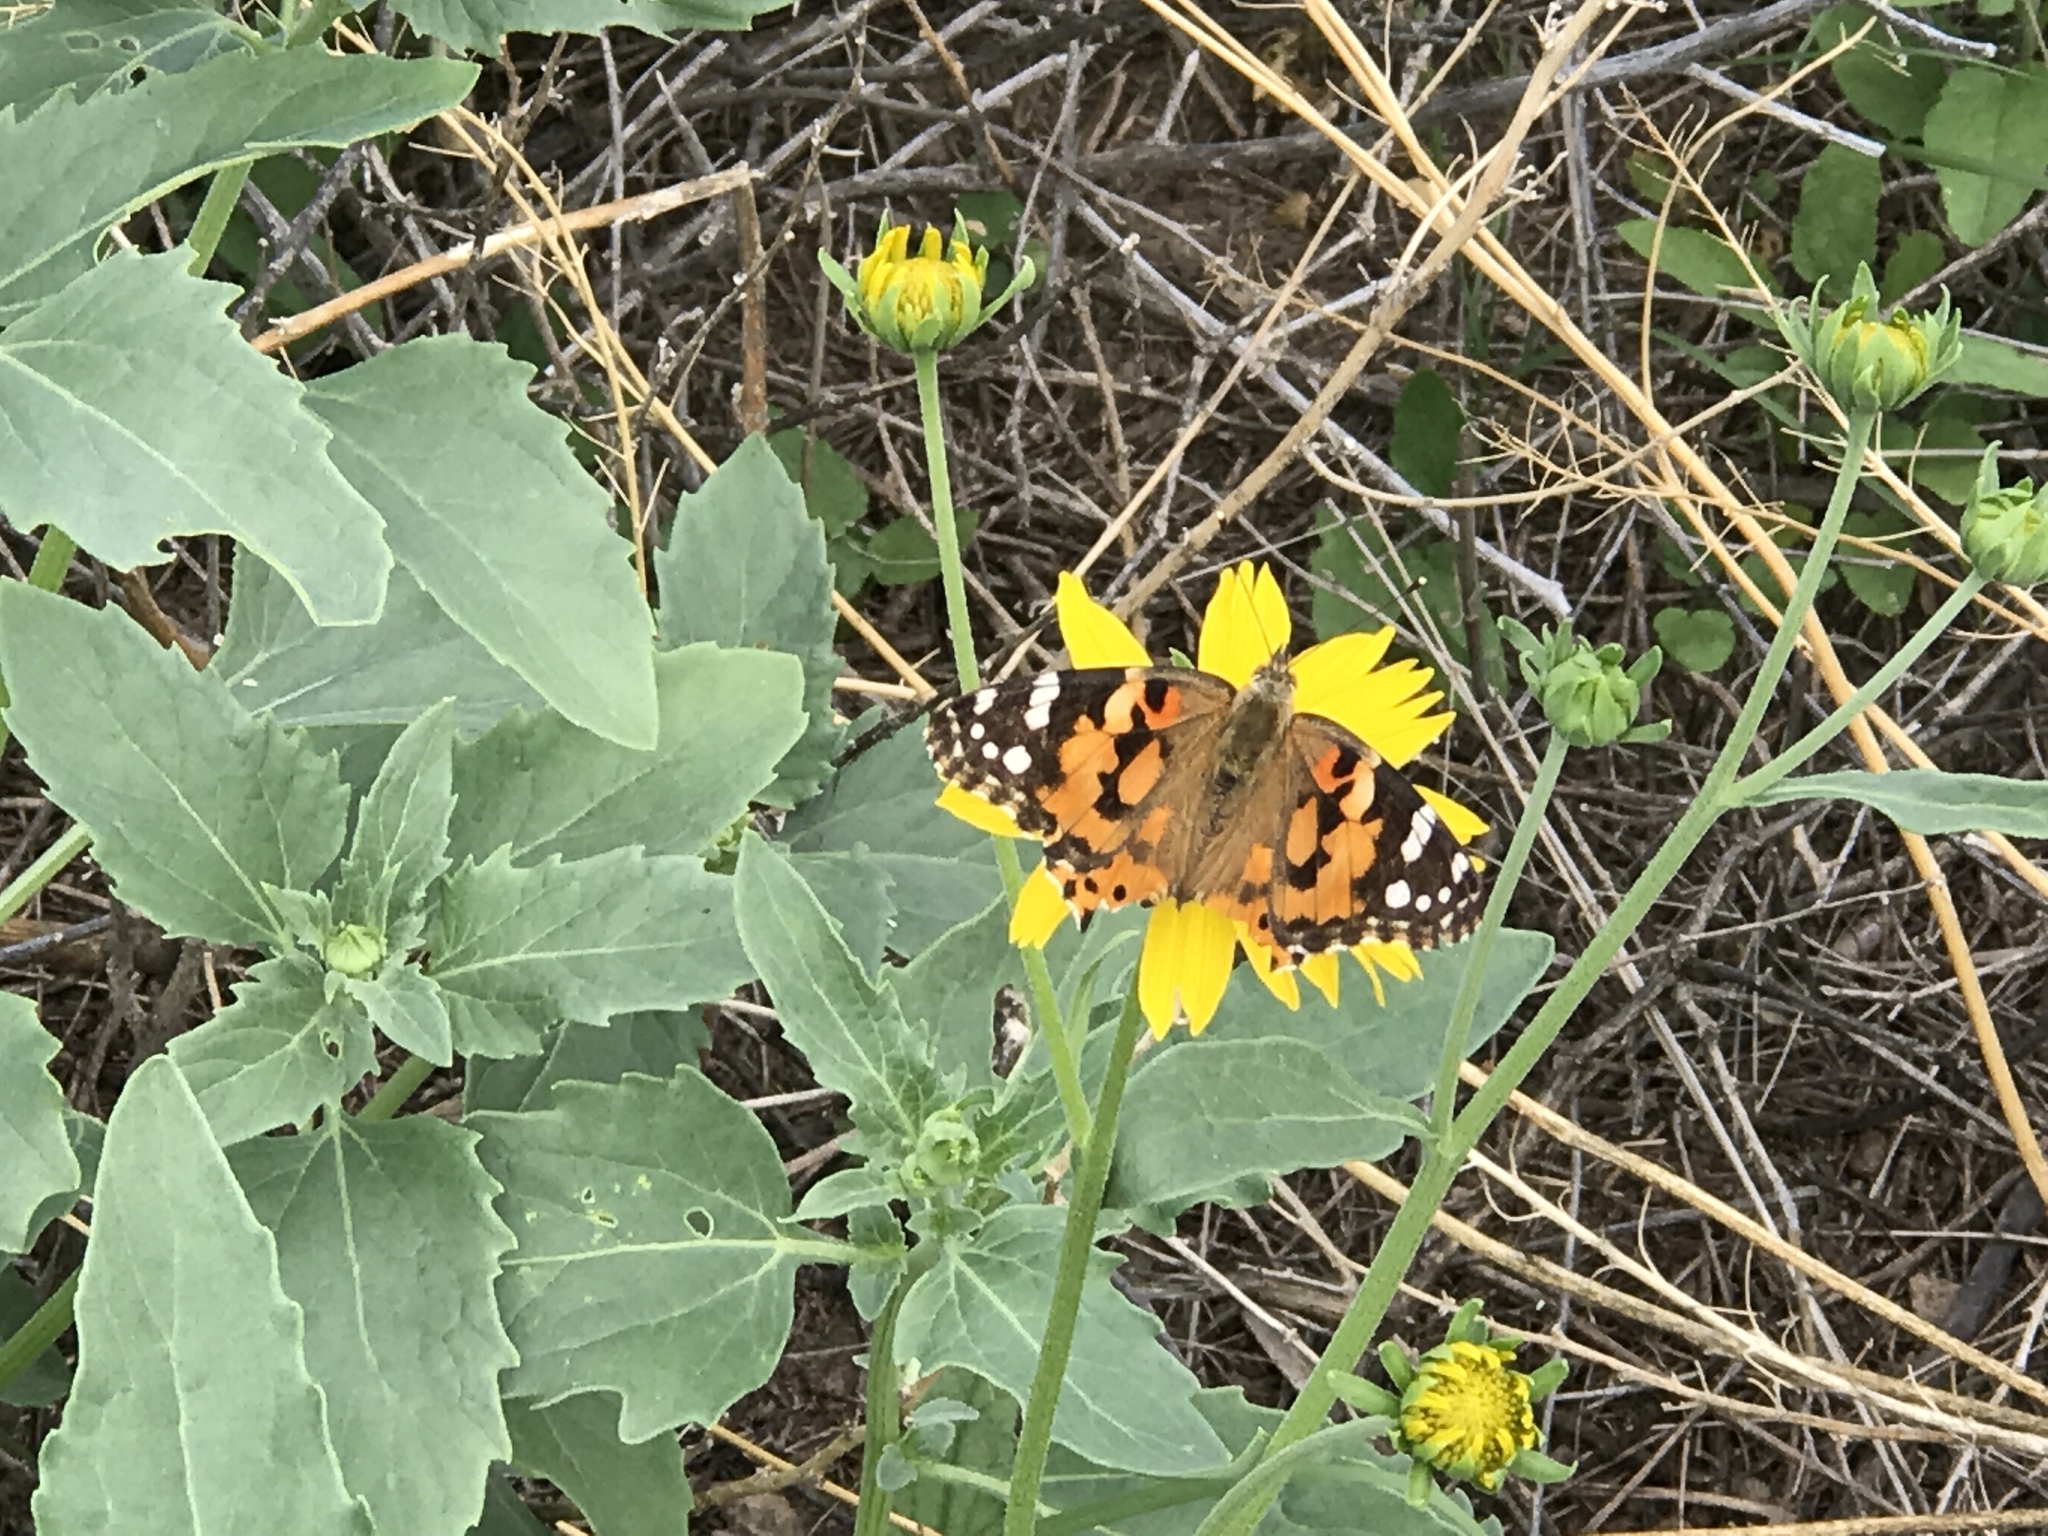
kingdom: Animalia
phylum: Arthropoda
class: Insecta
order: Lepidoptera
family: Nymphalidae
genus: Vanessa
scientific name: Vanessa cardui
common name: Painted lady
